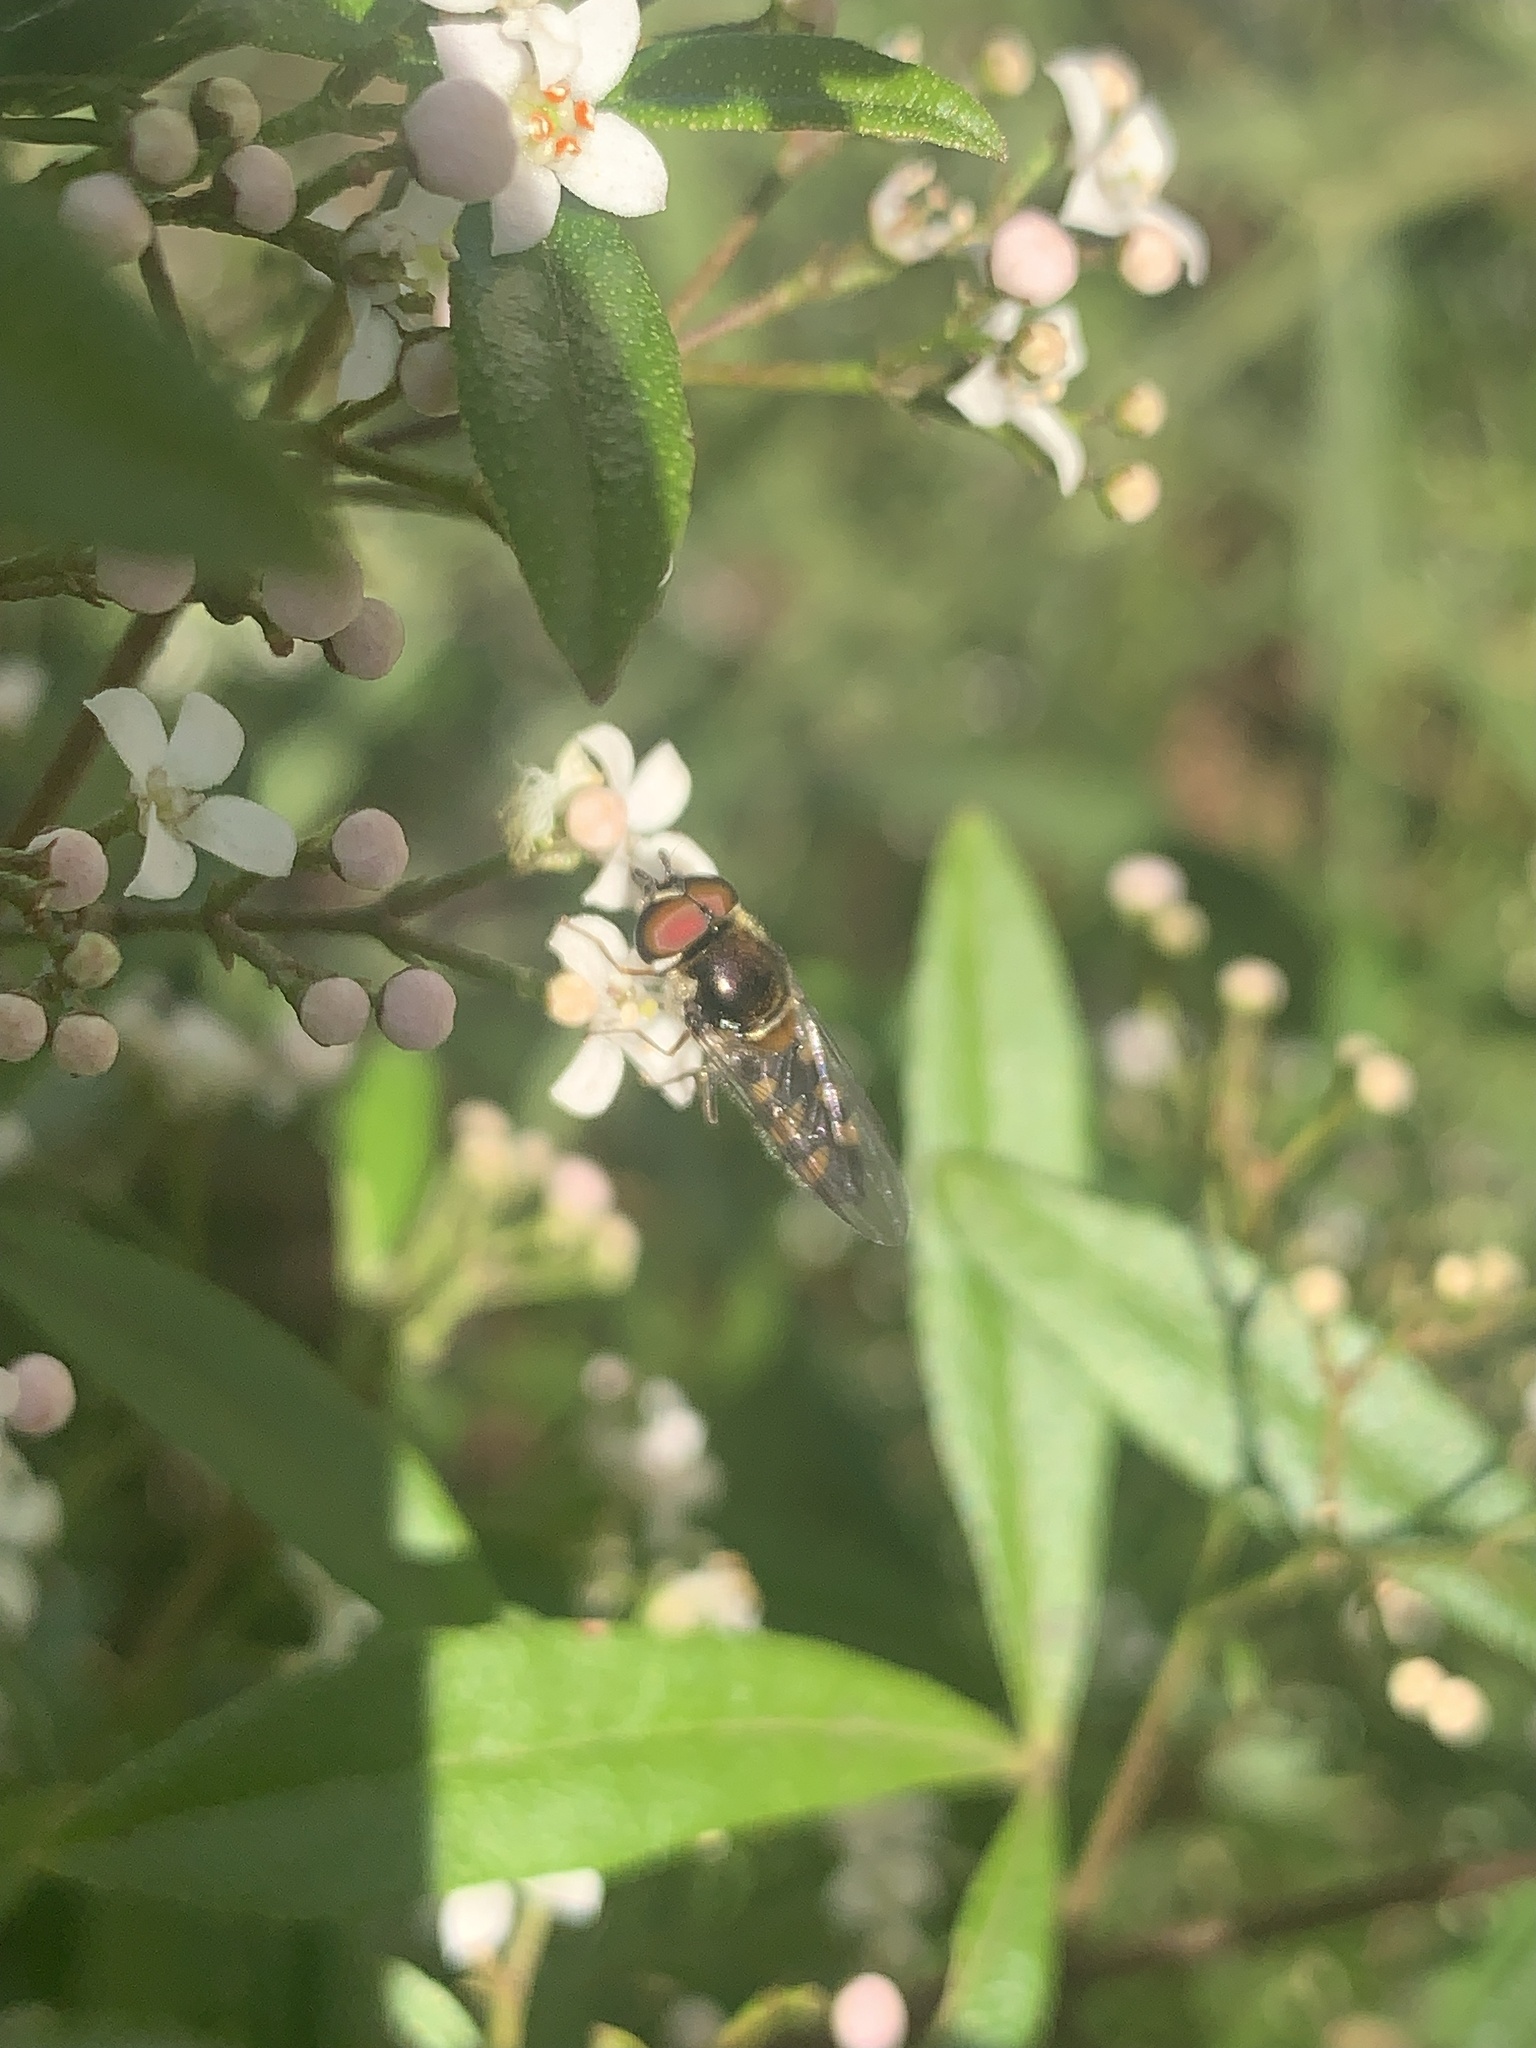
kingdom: Animalia
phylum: Arthropoda
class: Insecta
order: Diptera
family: Syrphidae
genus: Melangyna
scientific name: Melangyna viridiceps
